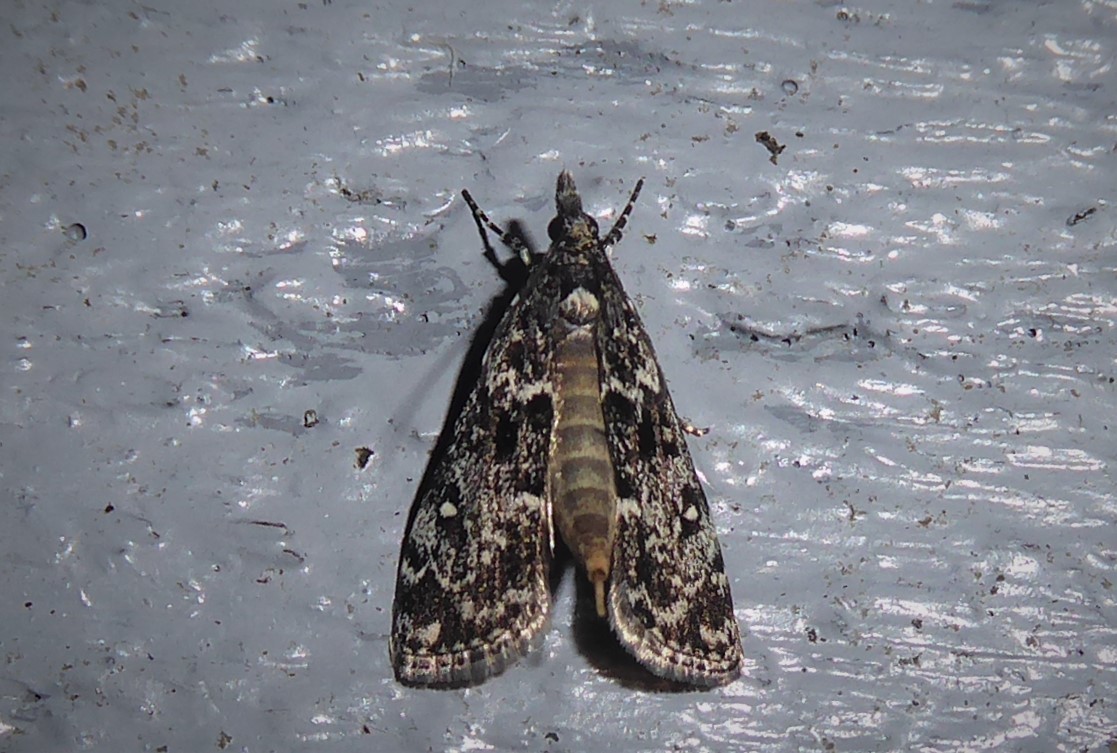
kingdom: Animalia
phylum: Arthropoda
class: Insecta
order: Lepidoptera
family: Crambidae
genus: Eudonia
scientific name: Eudonia philerga
